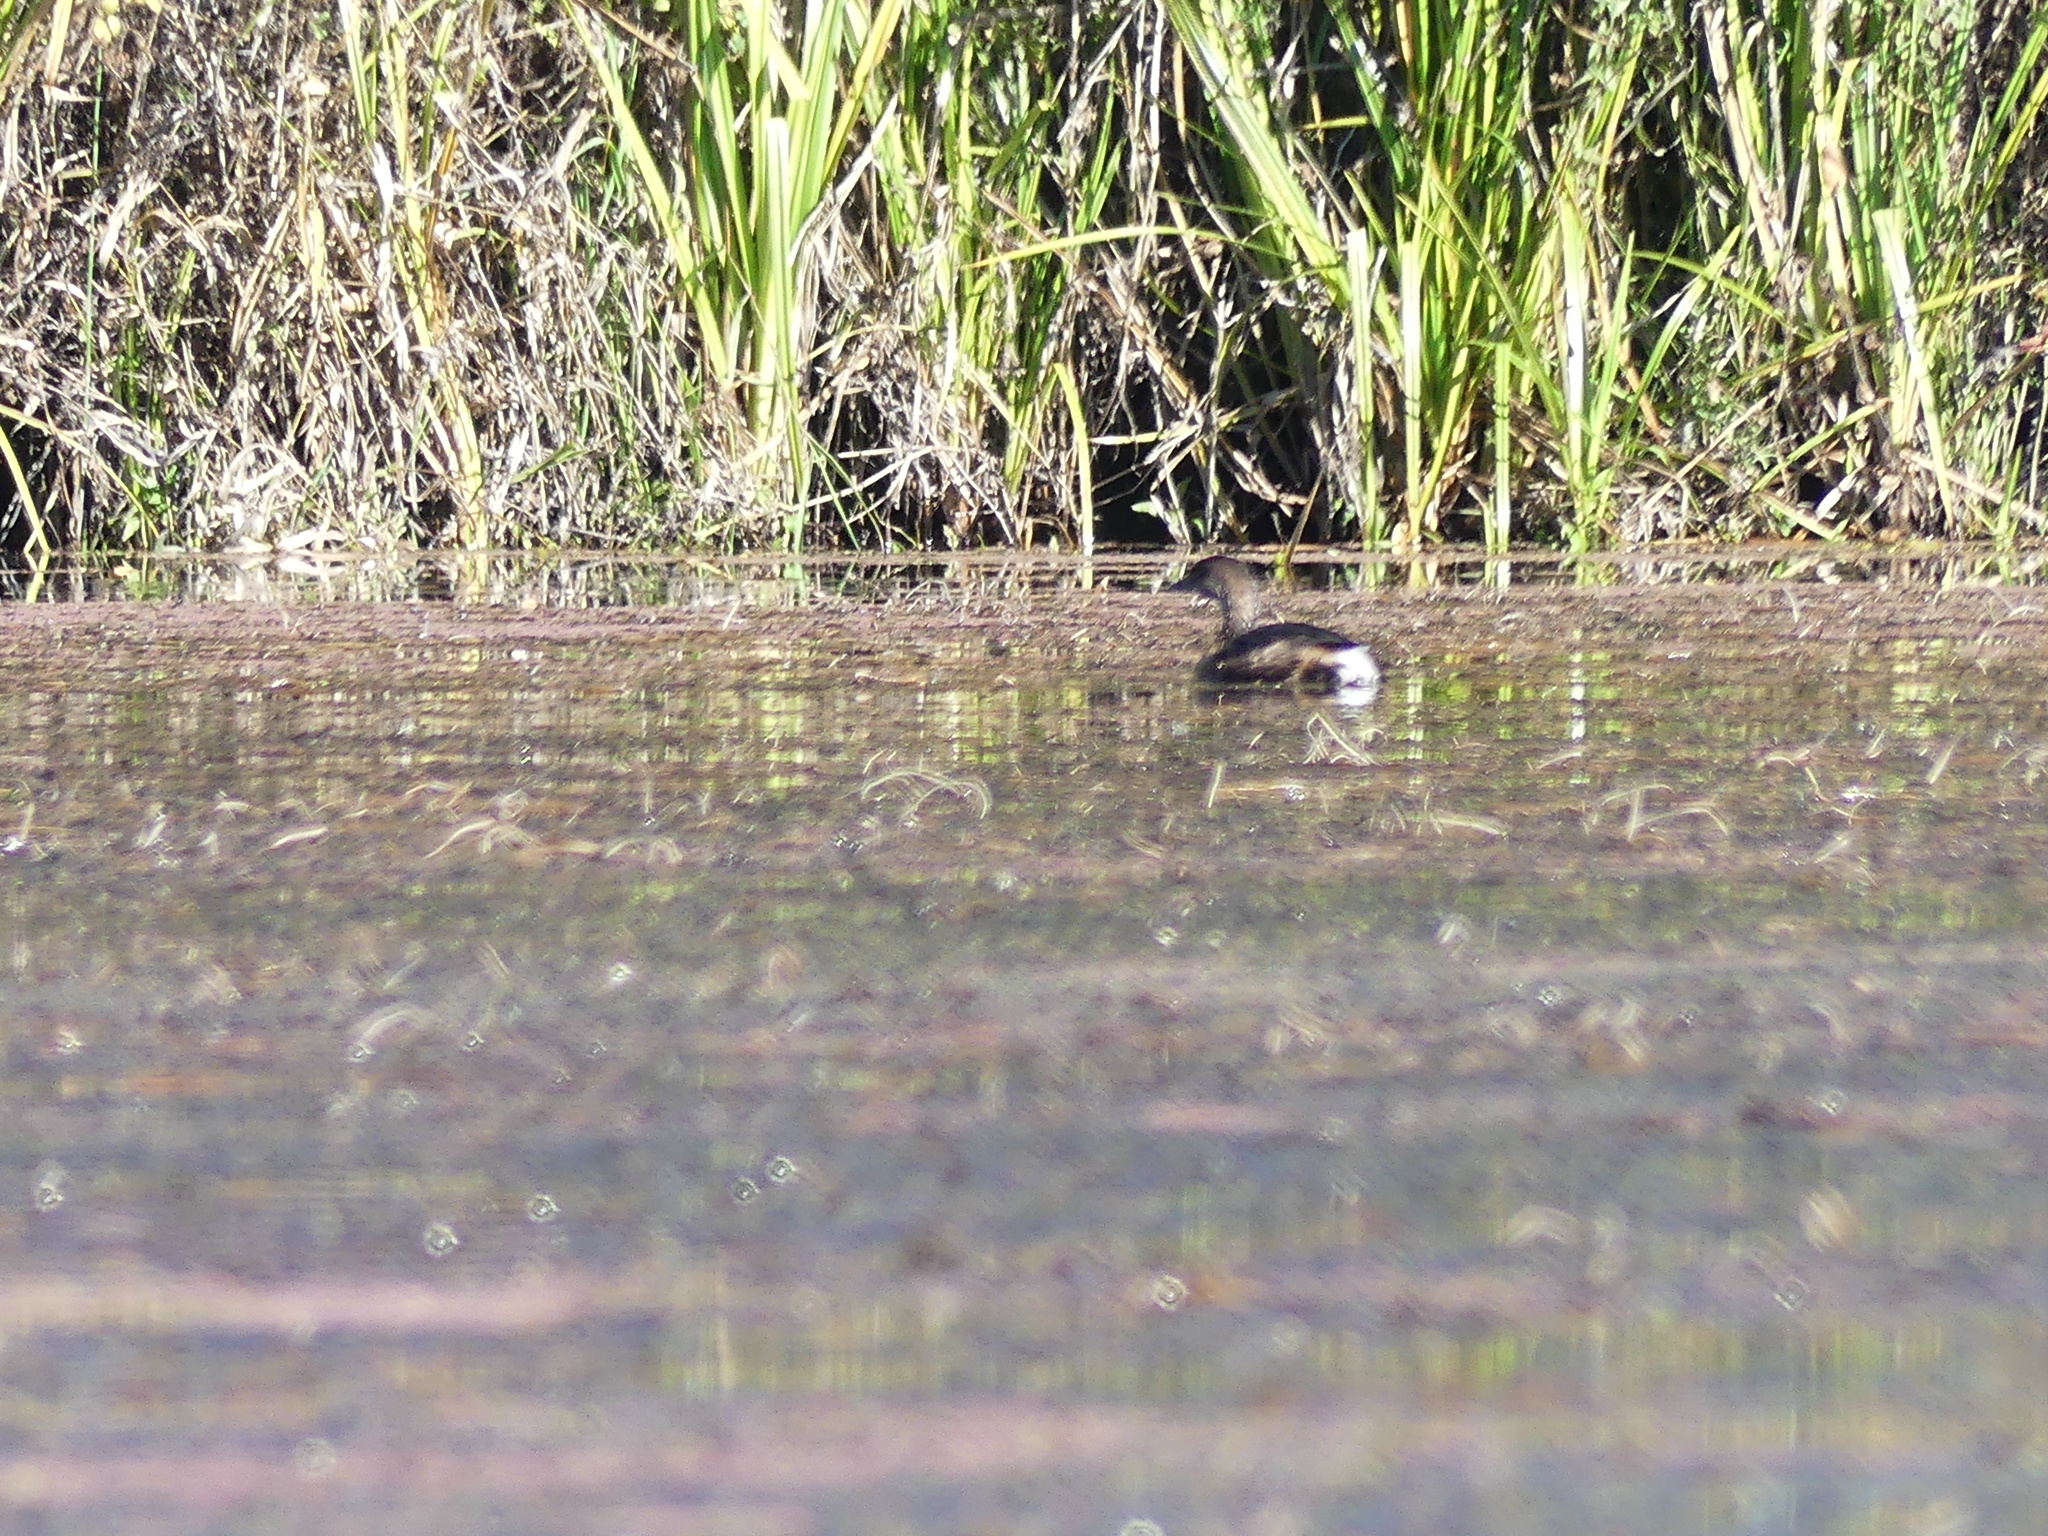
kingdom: Animalia
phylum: Chordata
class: Aves
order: Podicipediformes
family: Podicipedidae
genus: Podilymbus
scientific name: Podilymbus podiceps
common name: Pied-billed grebe
